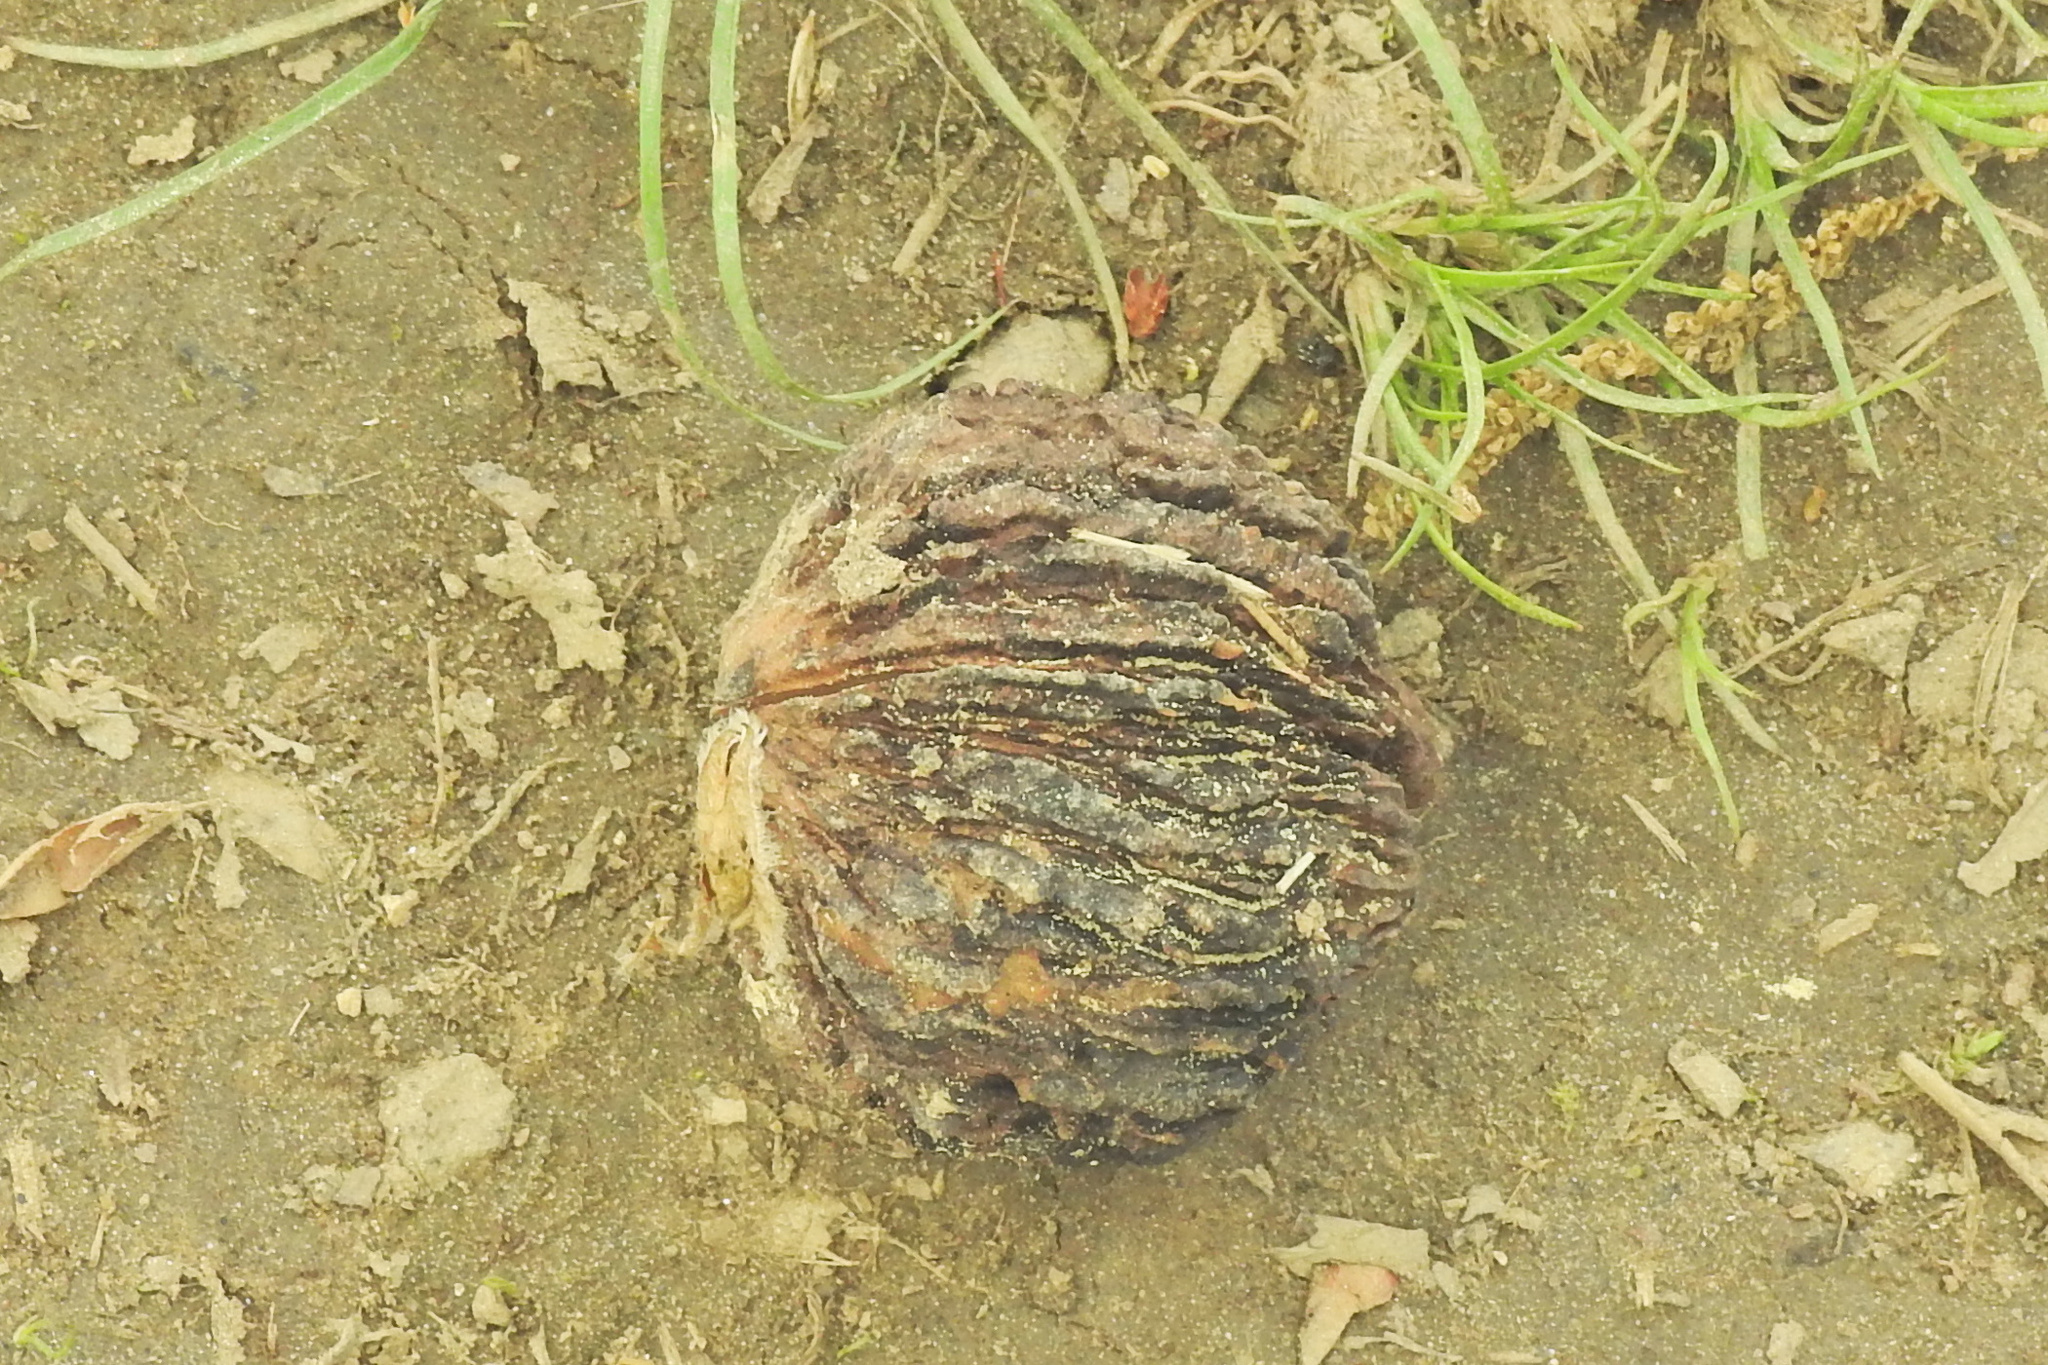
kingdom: Plantae
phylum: Tracheophyta
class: Magnoliopsida
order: Fagales
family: Juglandaceae
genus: Juglans
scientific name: Juglans nigra
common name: Black walnut
